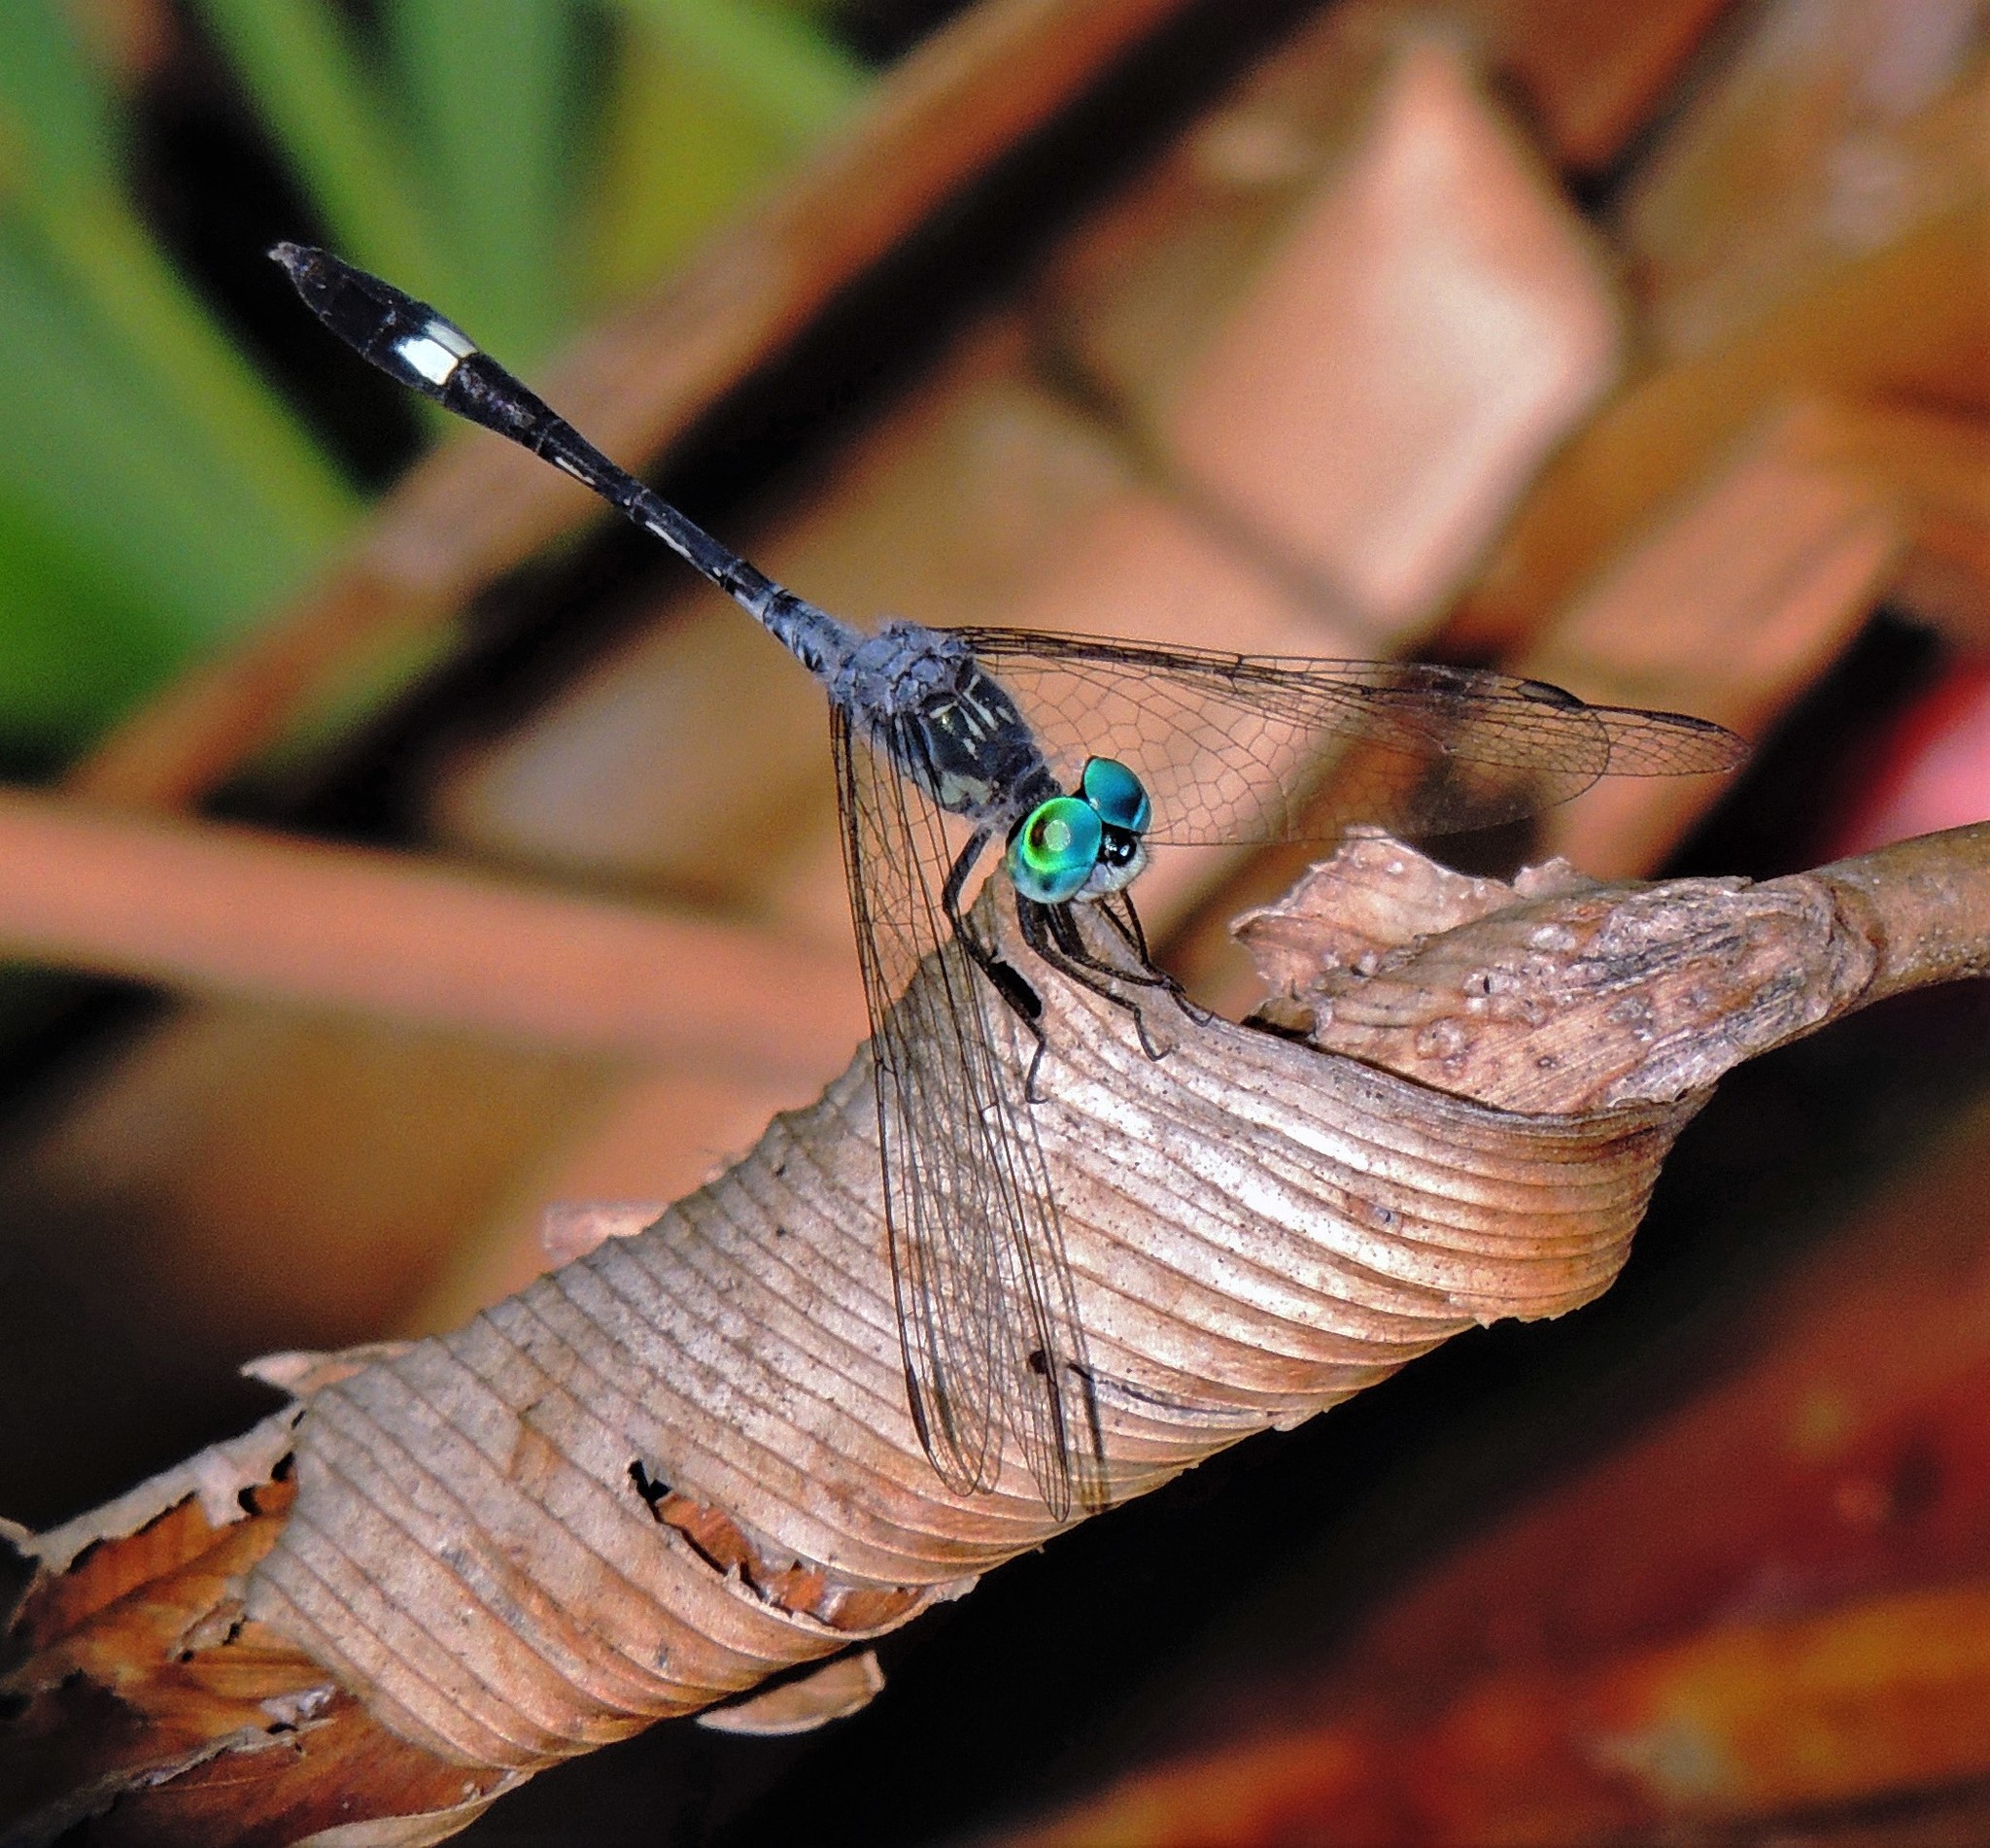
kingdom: Animalia
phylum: Arthropoda
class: Insecta
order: Odonata
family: Libellulidae
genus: Micrathyria
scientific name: Micrathyria longifasciata
